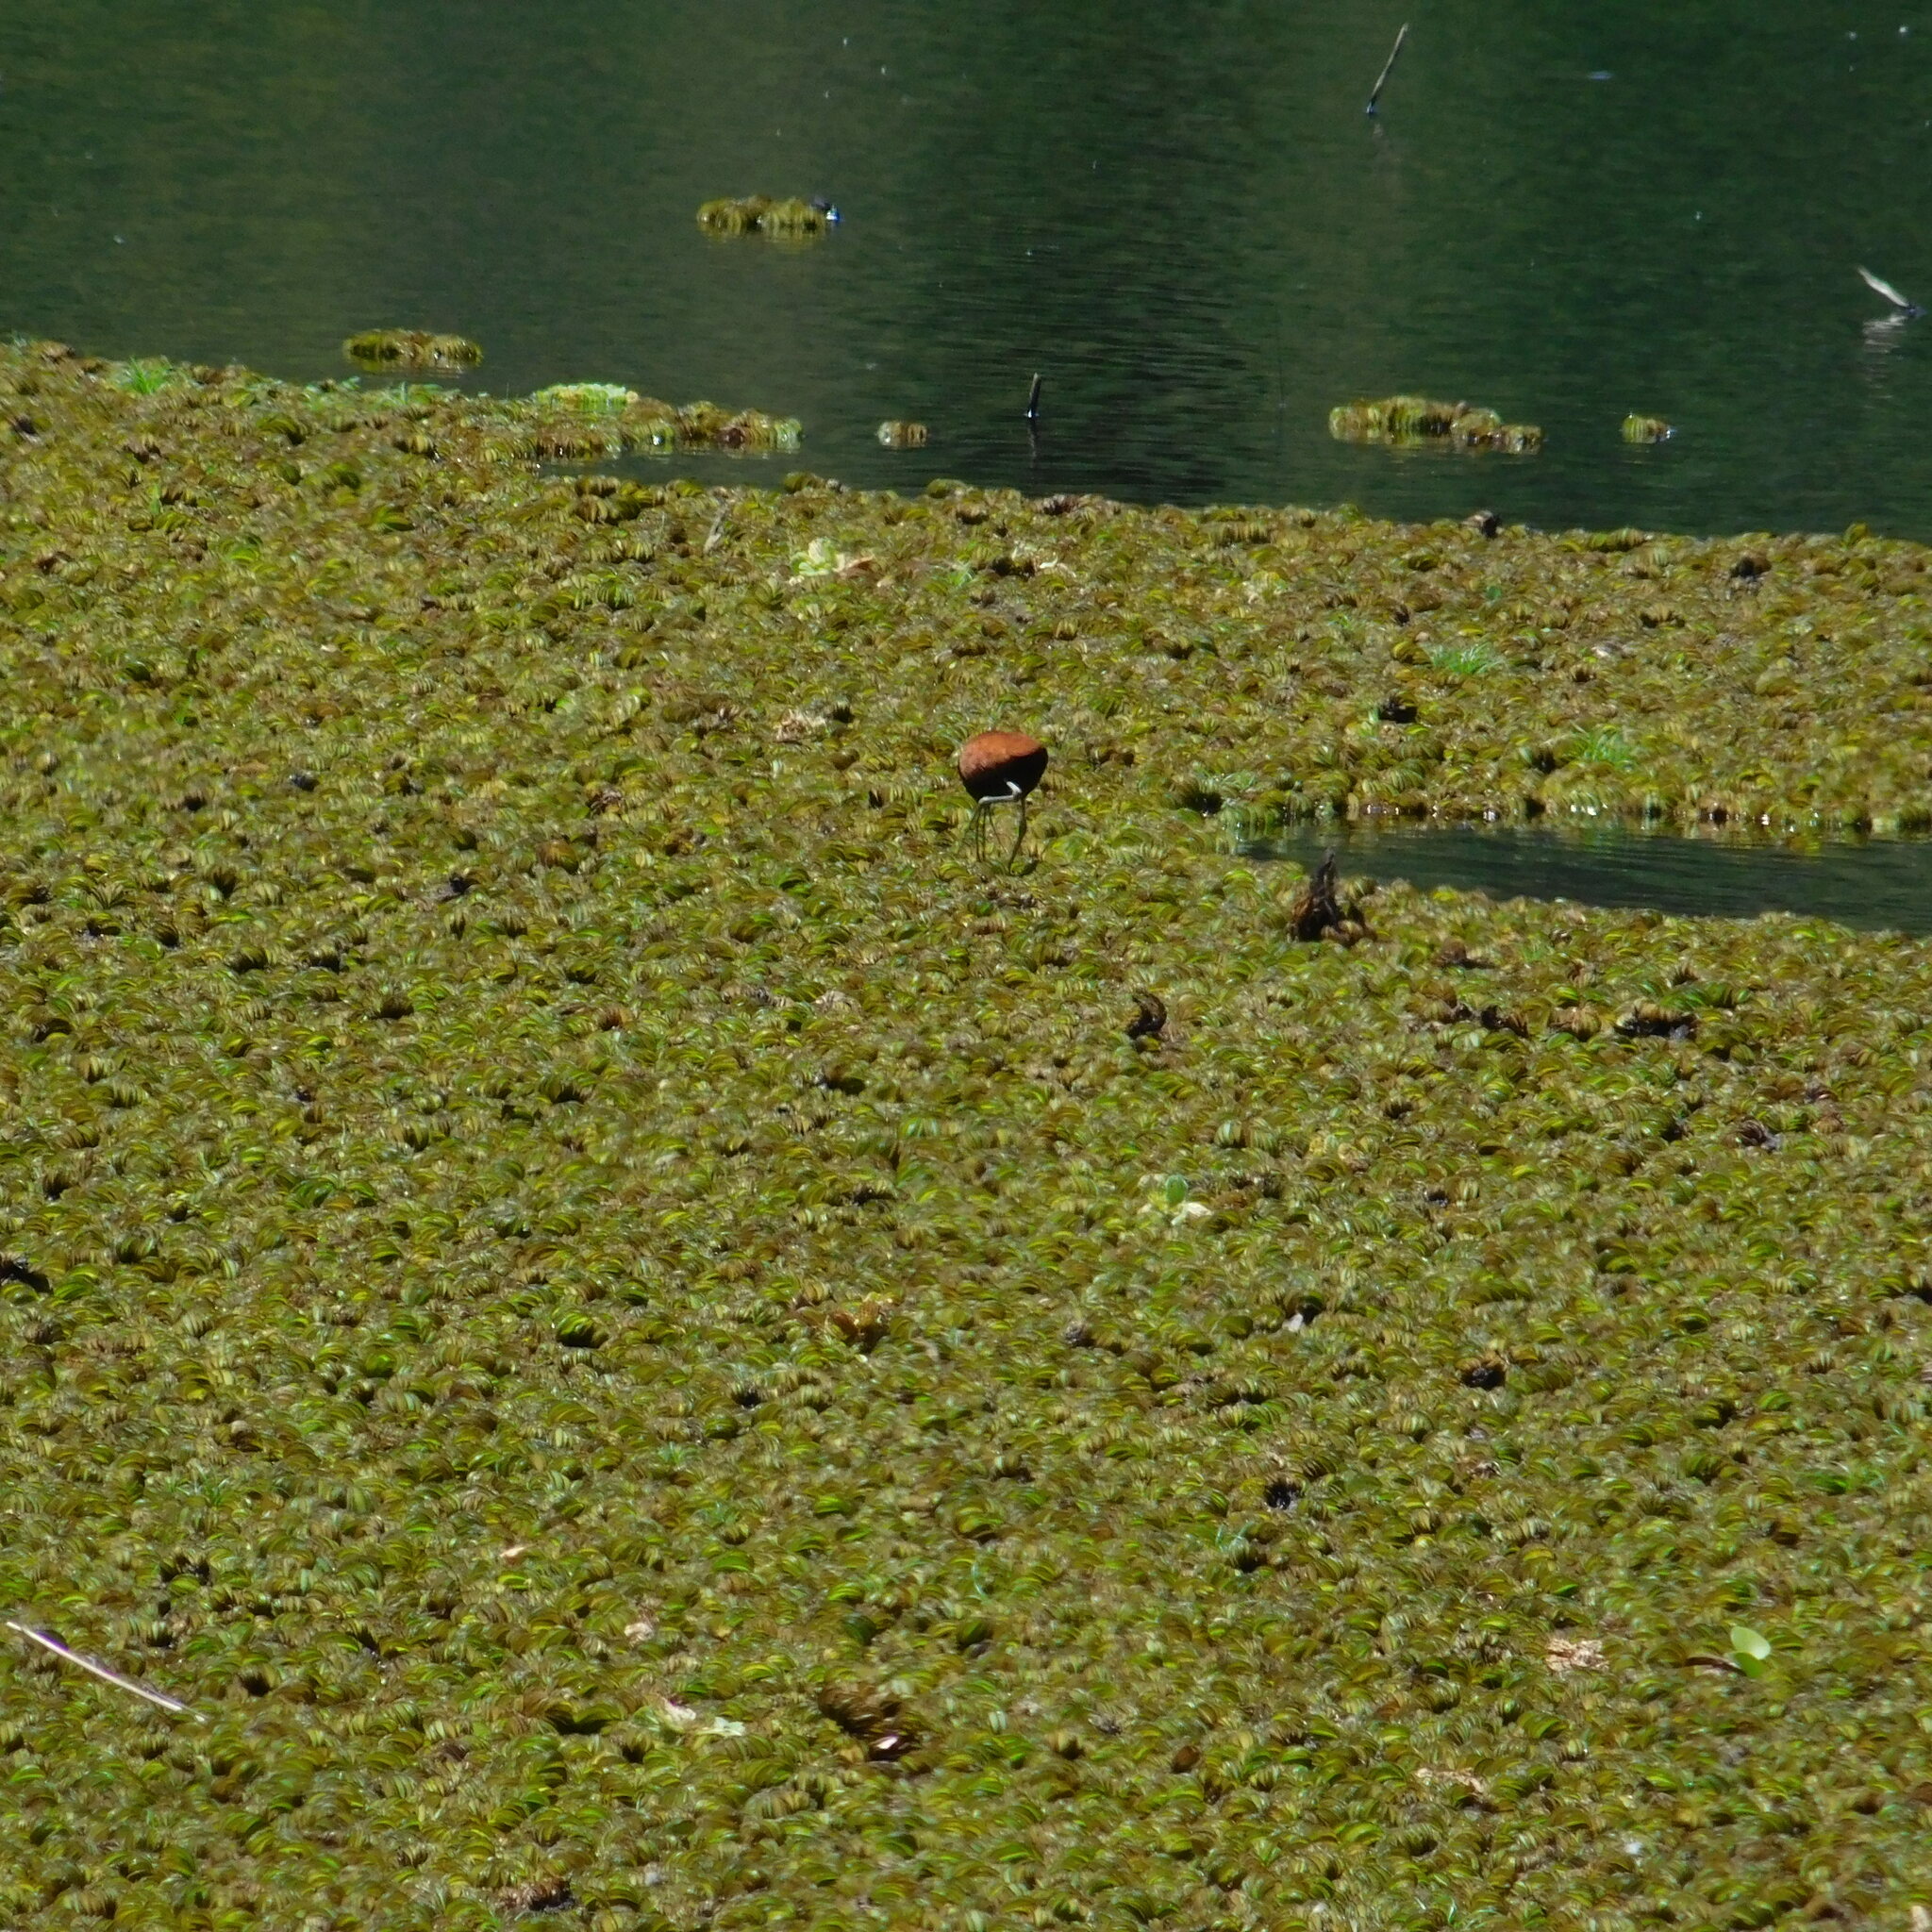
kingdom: Animalia
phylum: Chordata
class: Aves
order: Charadriiformes
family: Jacanidae
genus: Jacana
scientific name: Jacana jacana
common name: Wattled jacana
